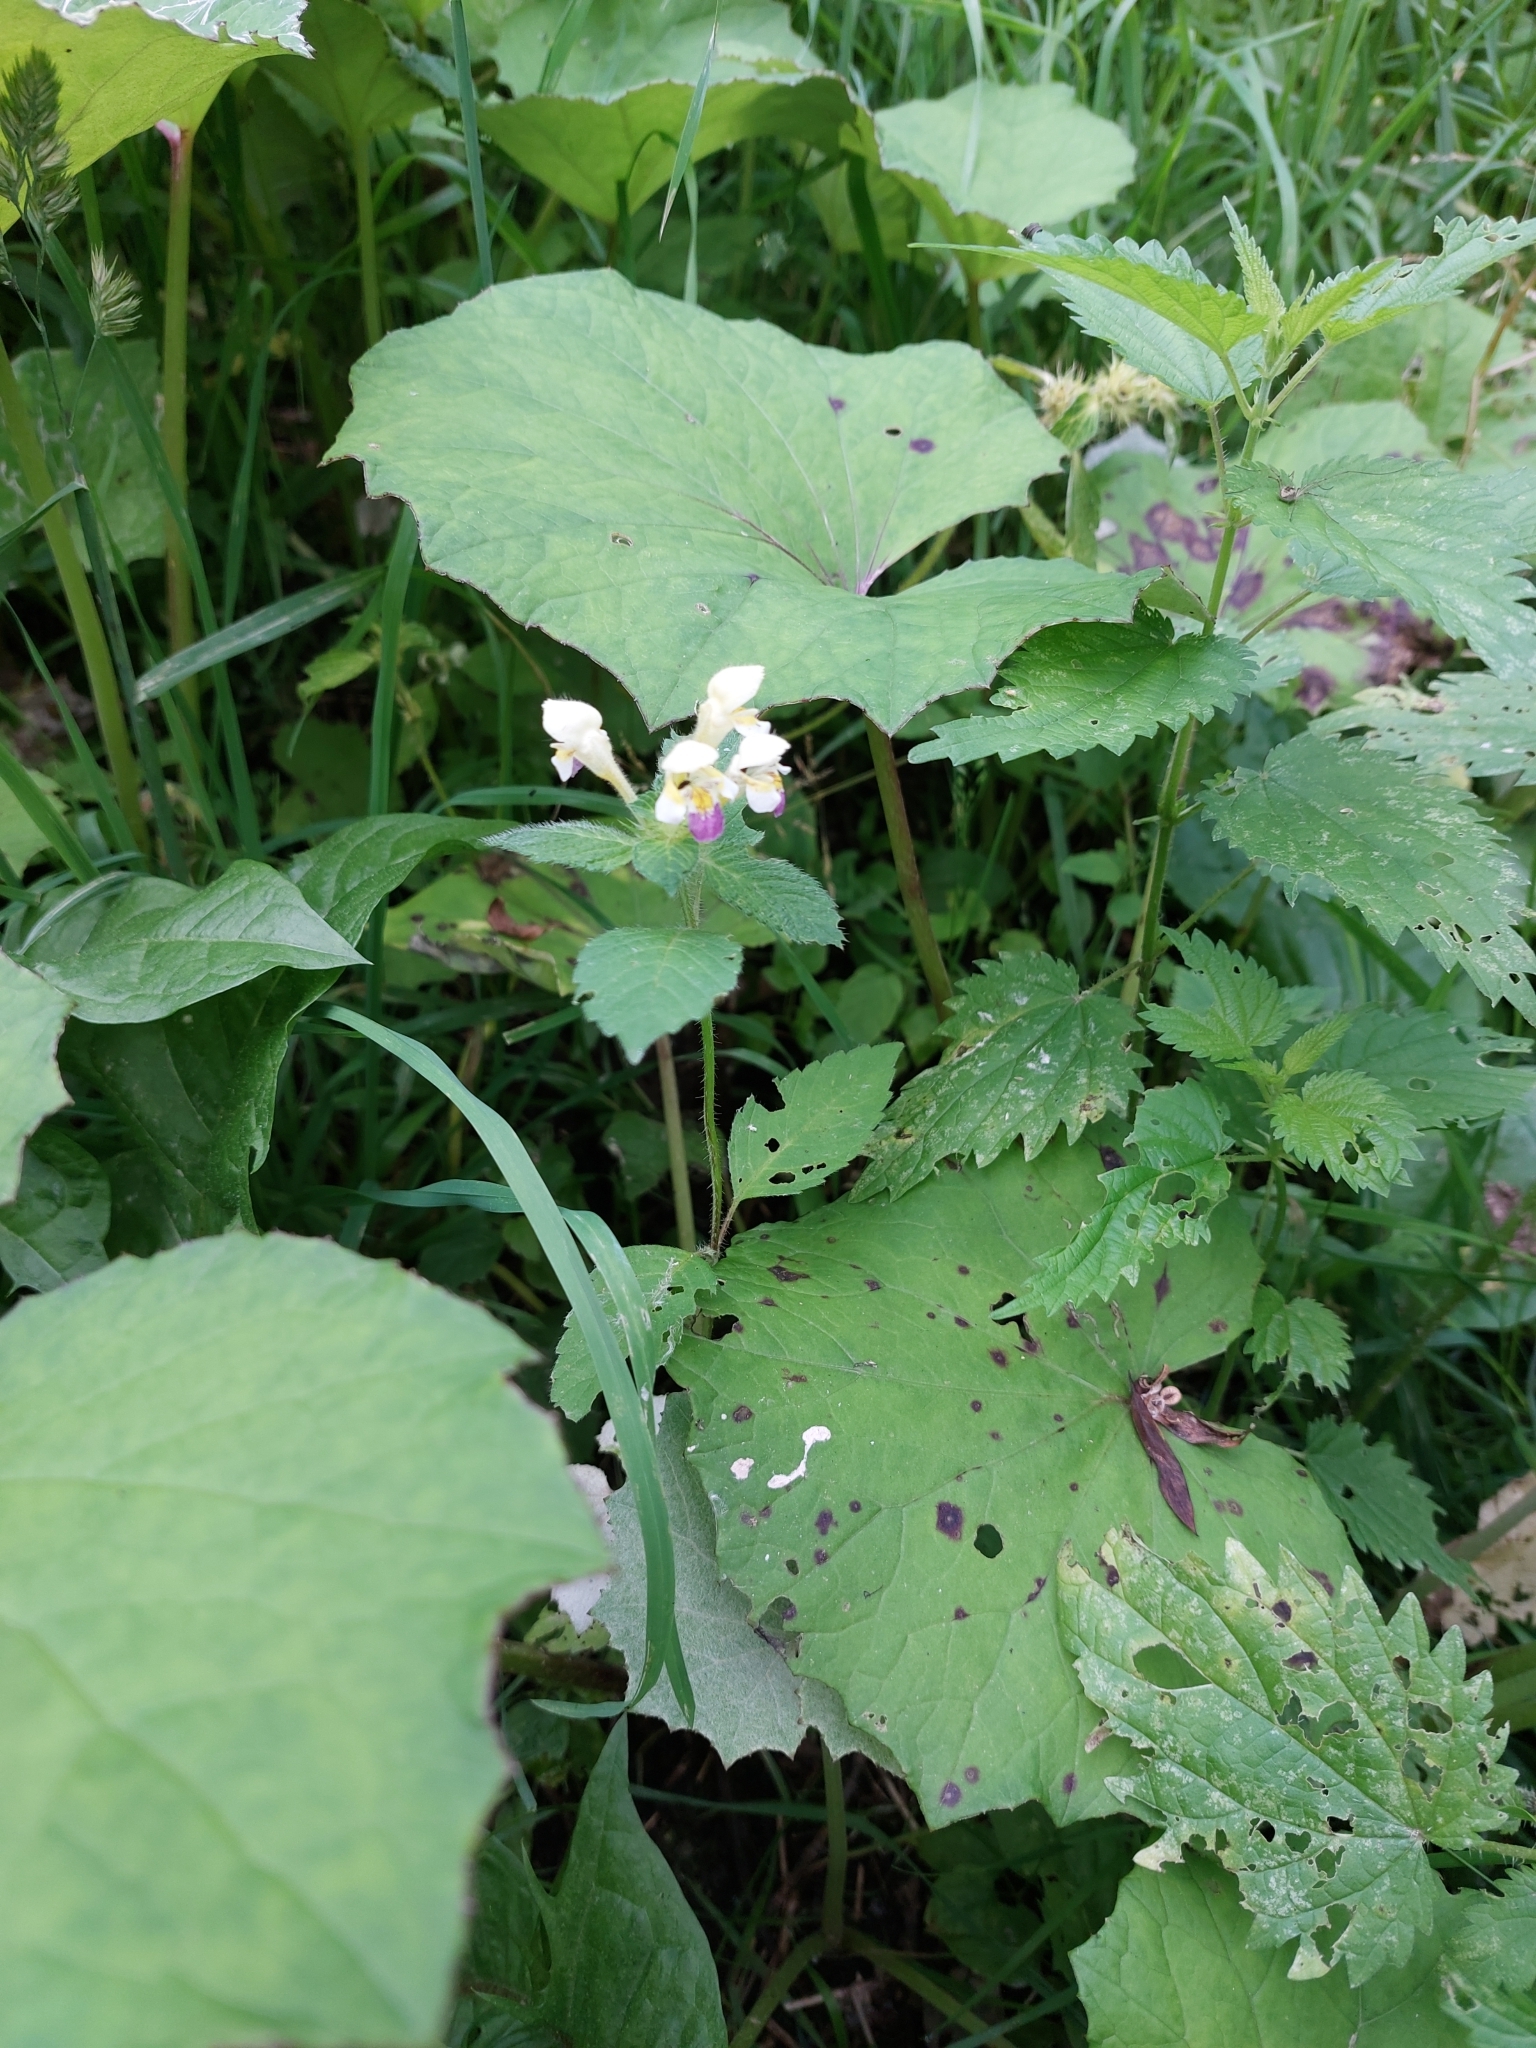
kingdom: Plantae
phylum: Tracheophyta
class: Magnoliopsida
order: Lamiales
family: Lamiaceae
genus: Galeopsis
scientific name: Galeopsis speciosa
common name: Large-flowered hemp-nettle
